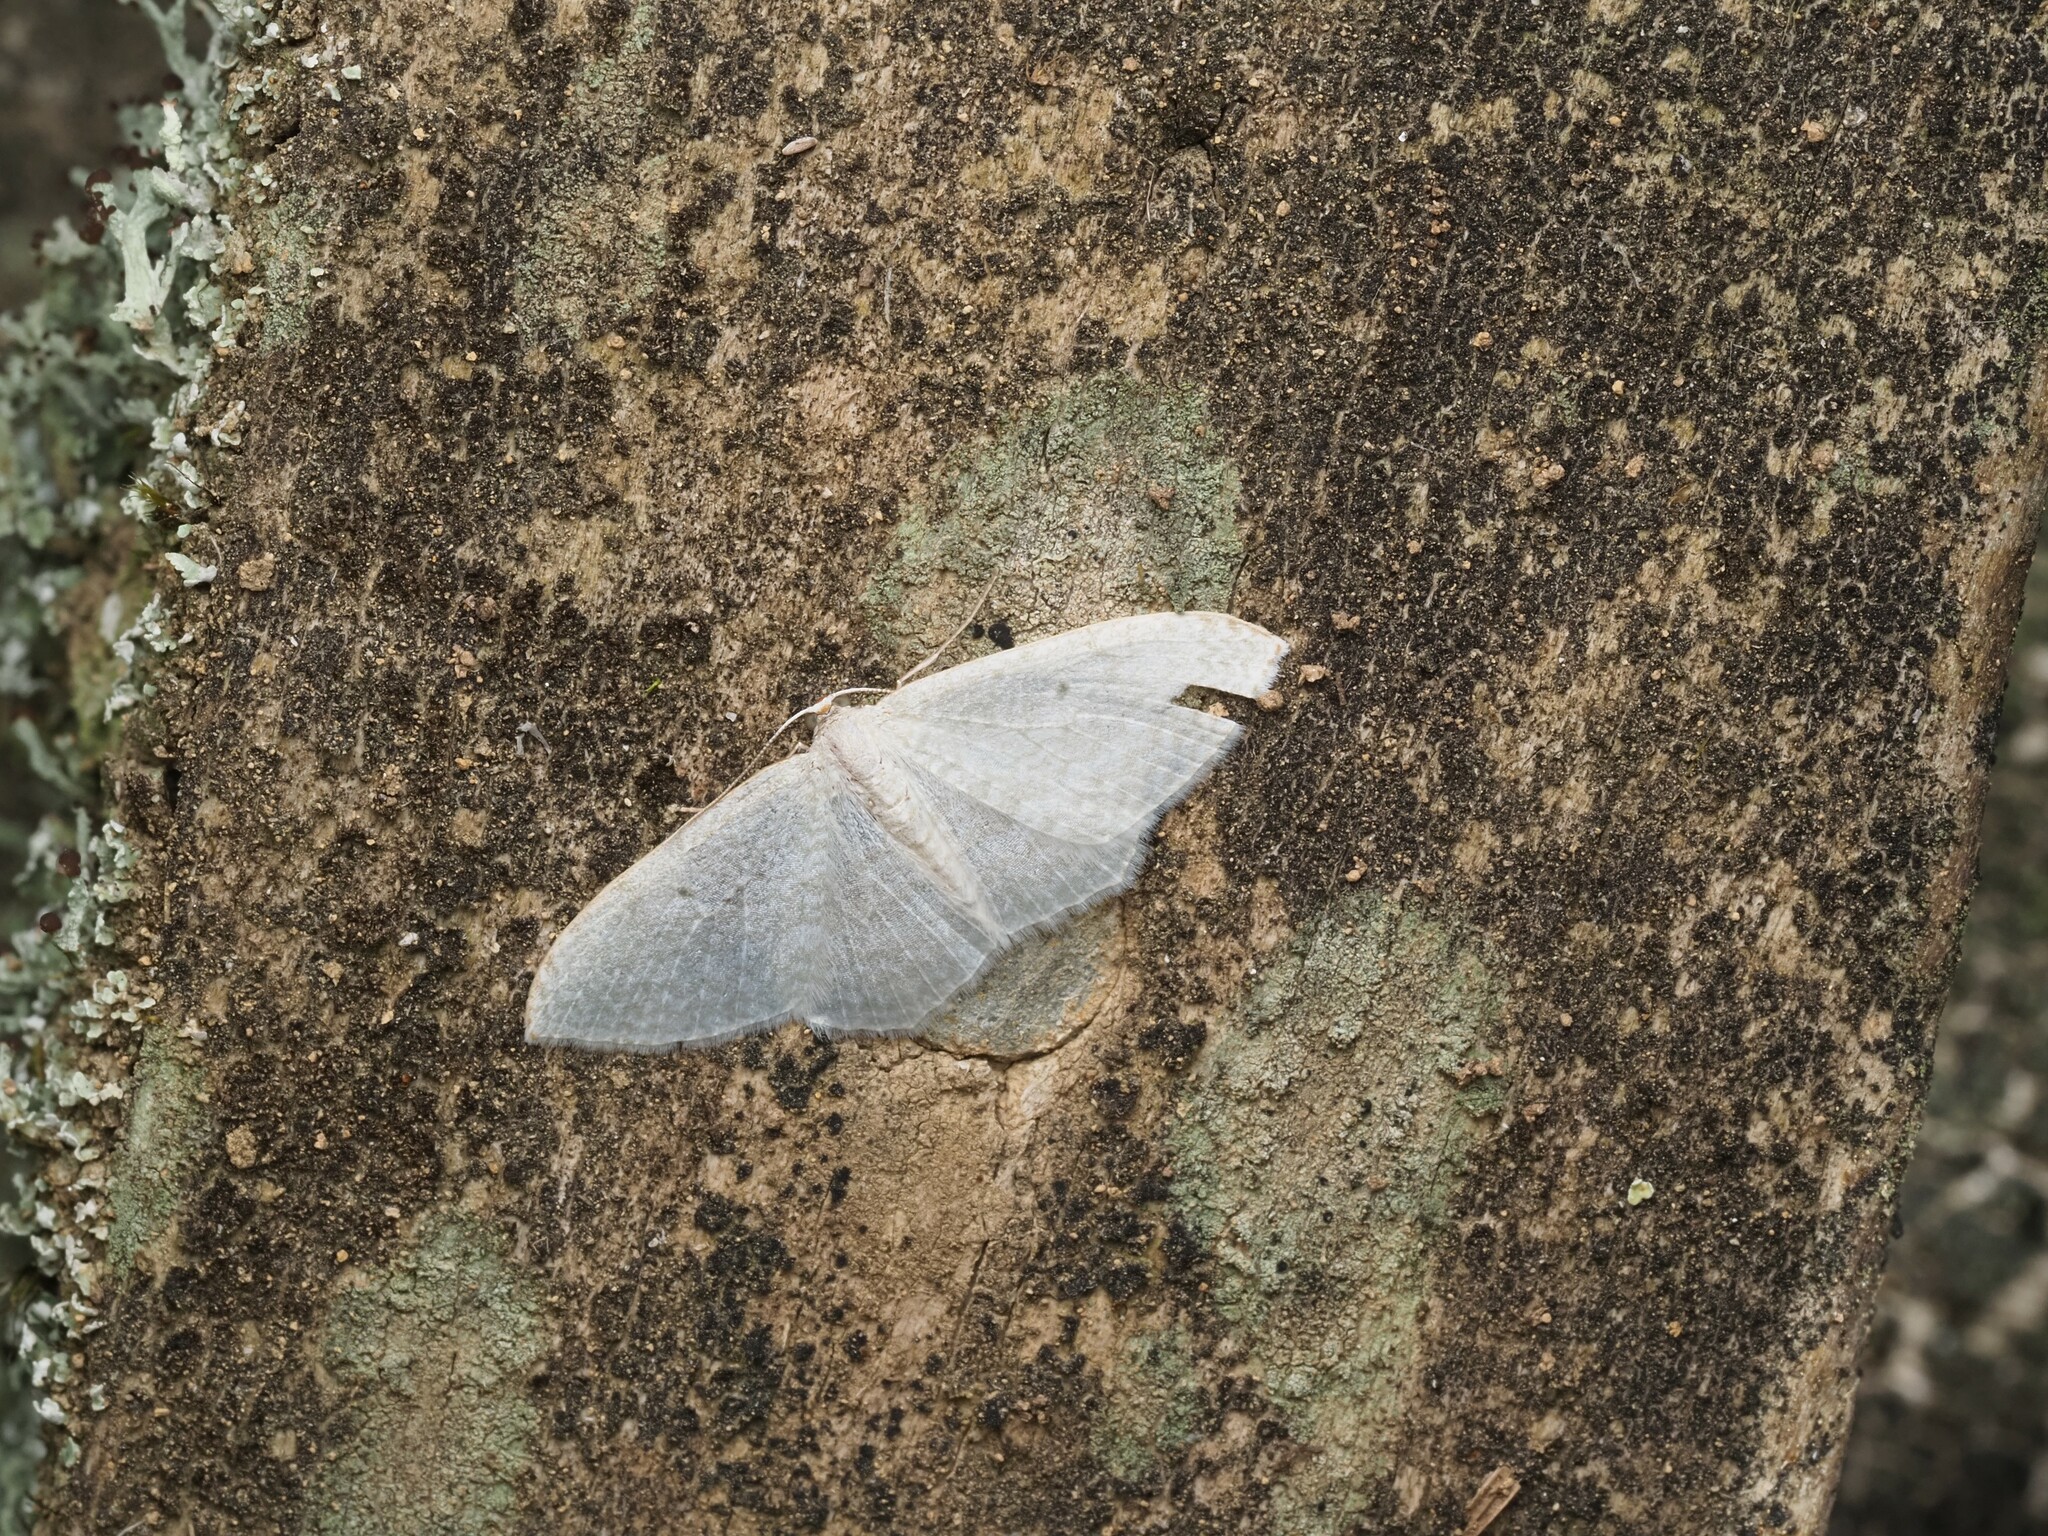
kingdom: Animalia
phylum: Arthropoda
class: Insecta
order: Lepidoptera
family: Geometridae
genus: Poecilasthena
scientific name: Poecilasthena pulchraria
